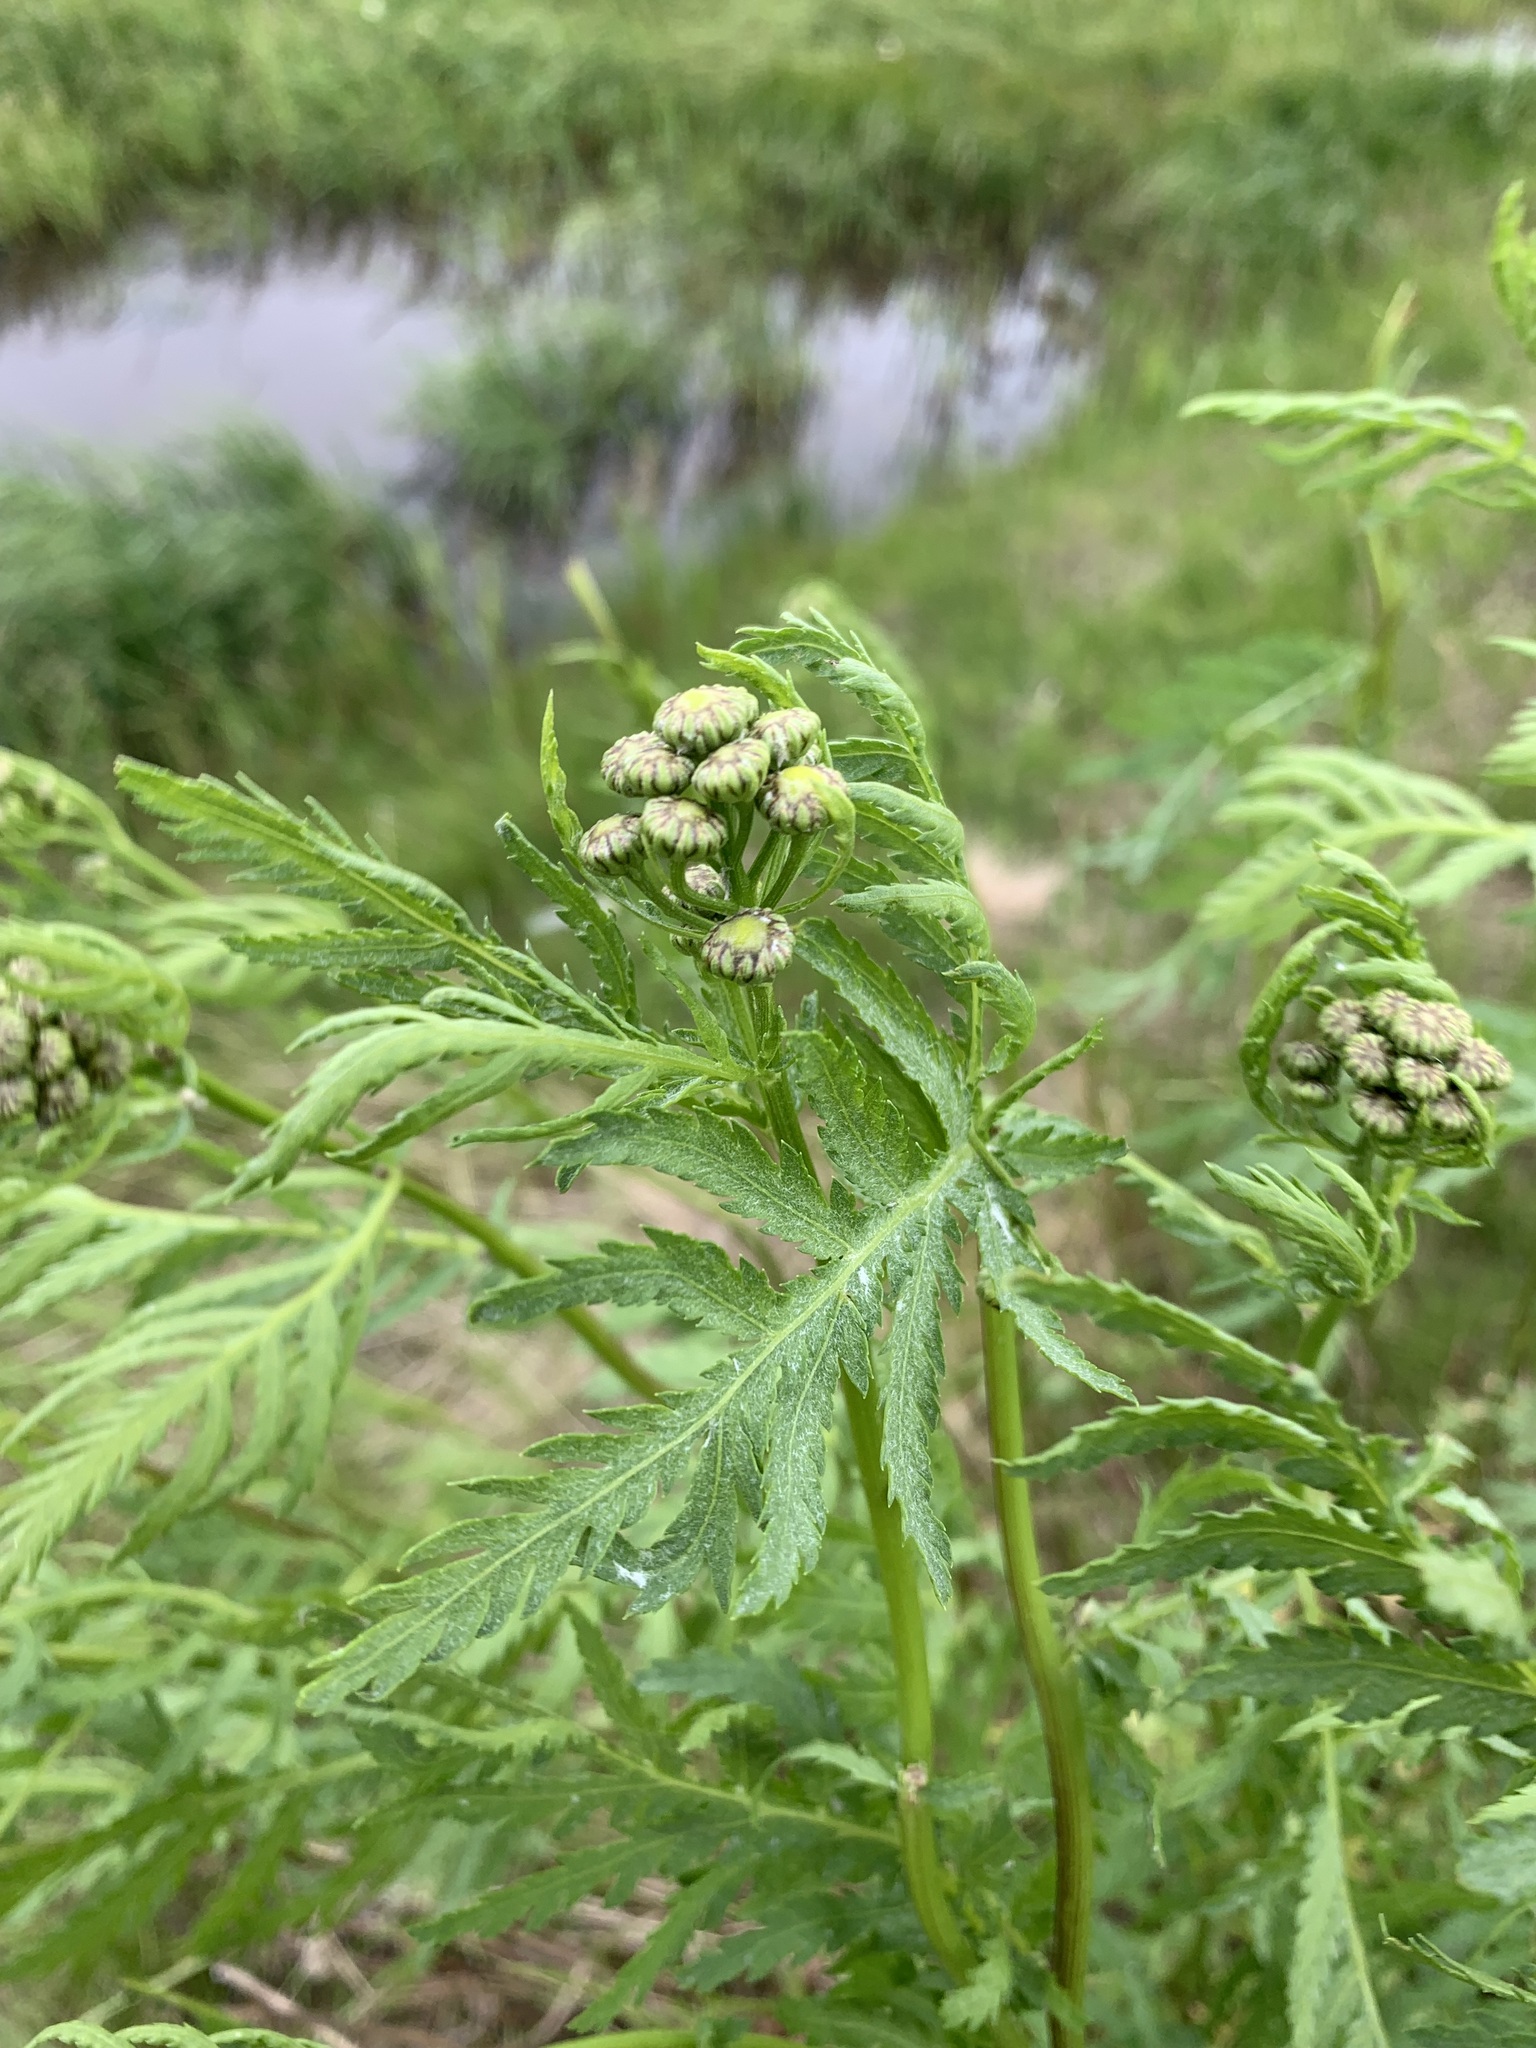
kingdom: Plantae
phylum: Tracheophyta
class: Magnoliopsida
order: Asterales
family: Asteraceae
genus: Tanacetum
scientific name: Tanacetum vulgare
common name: Common tansy
